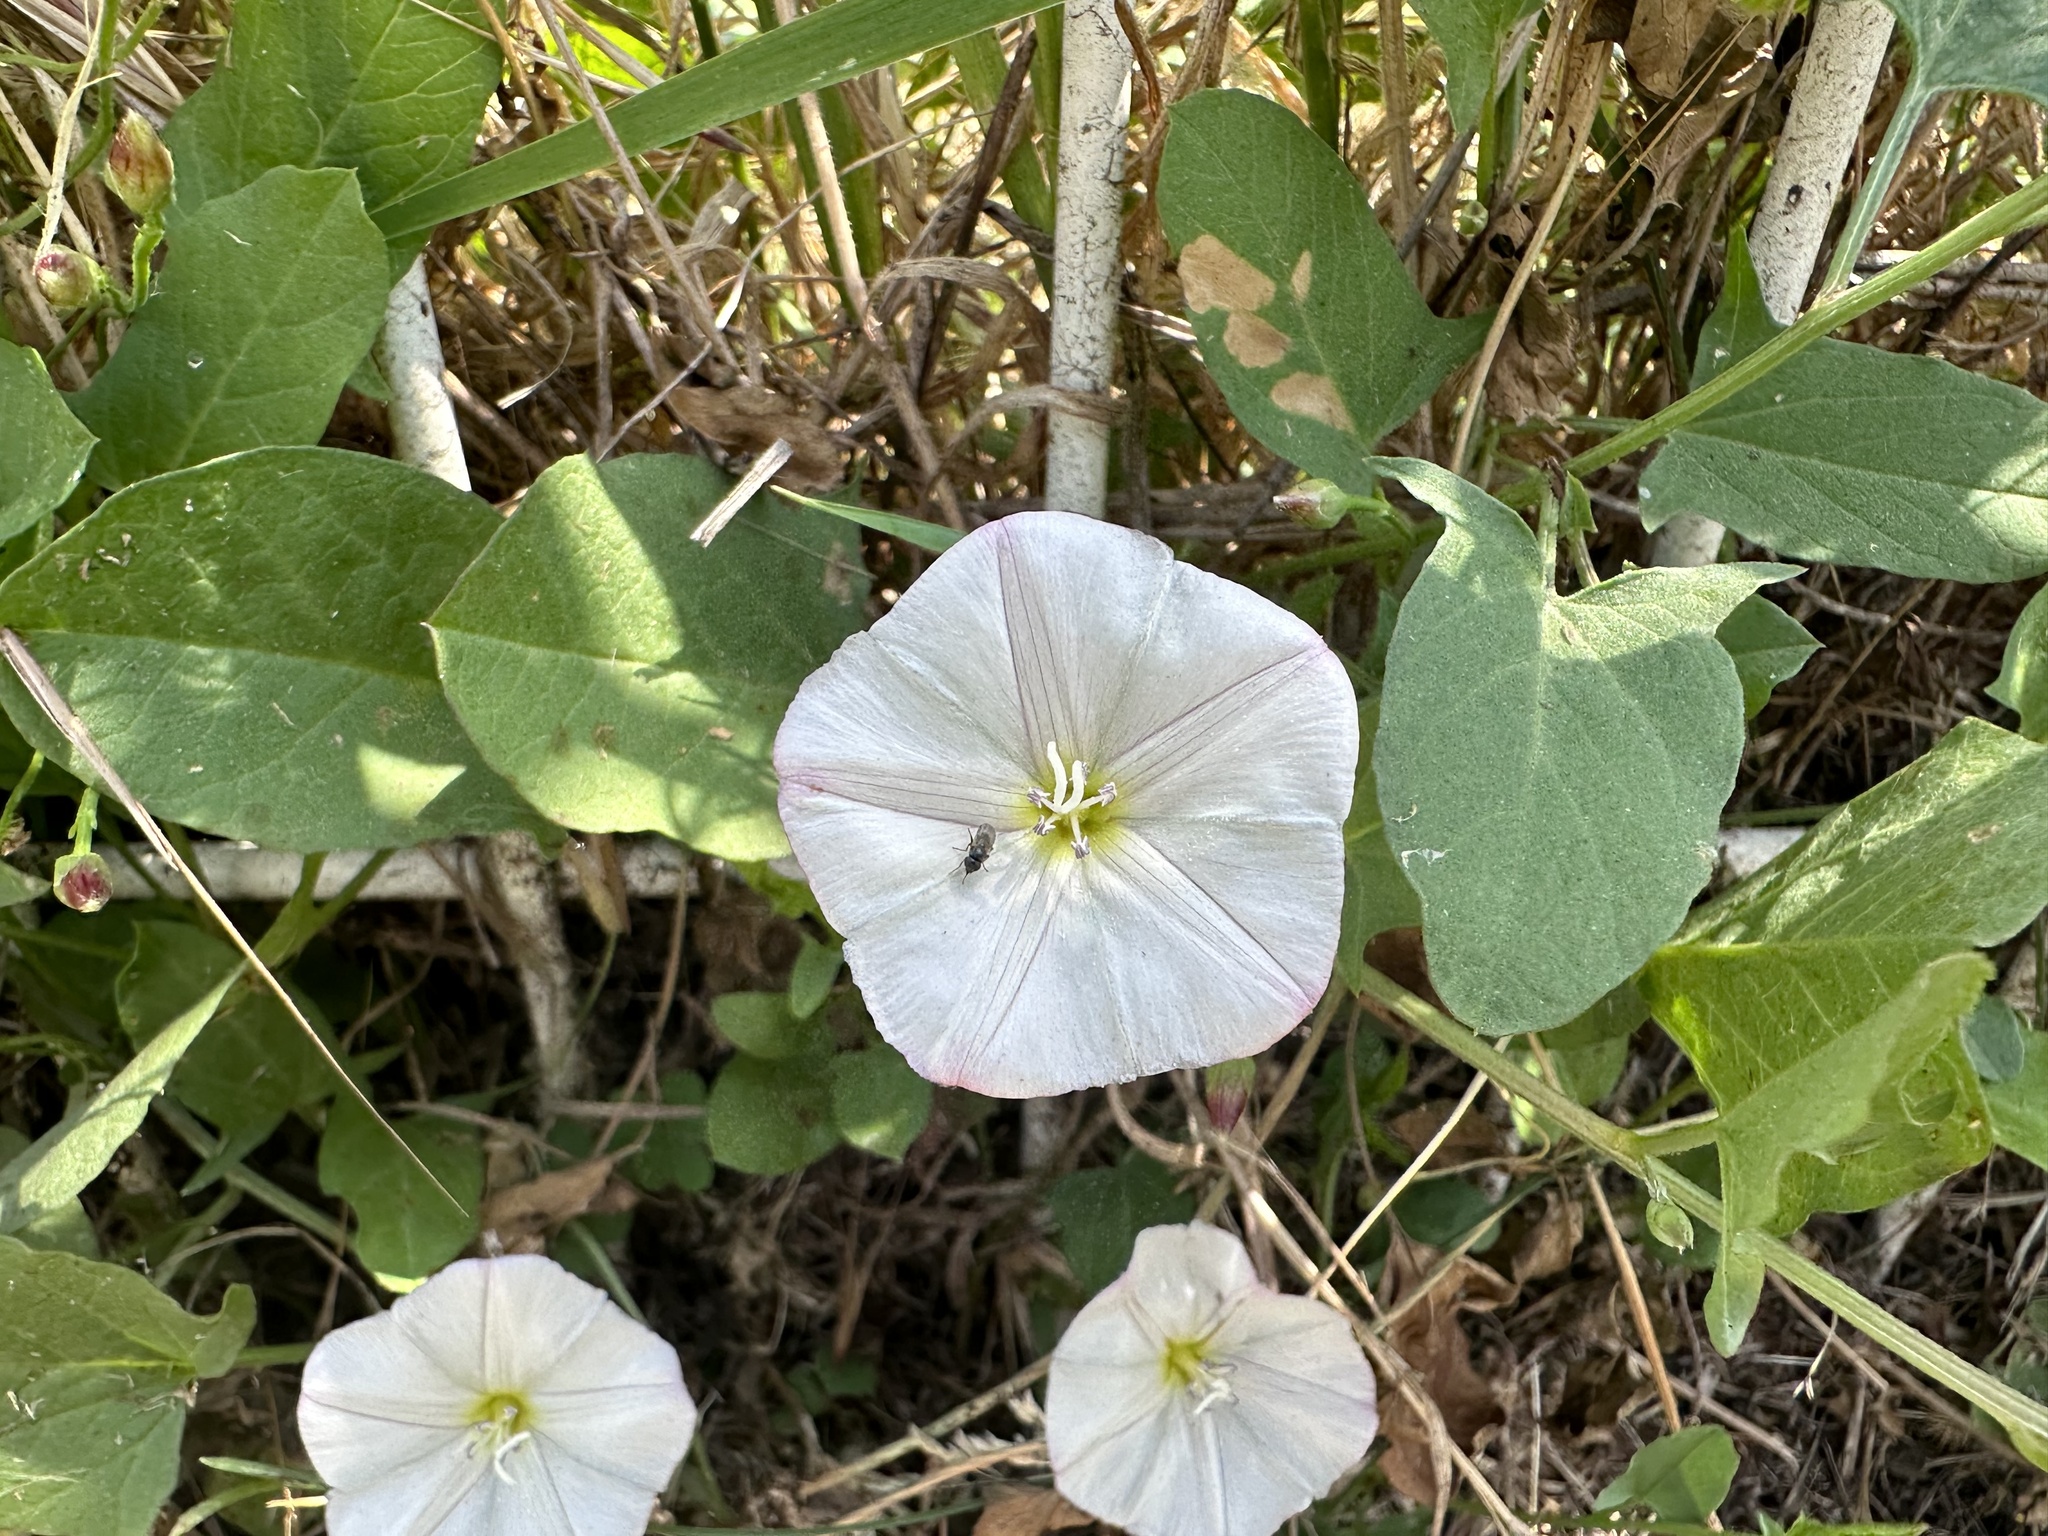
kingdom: Plantae
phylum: Tracheophyta
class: Magnoliopsida
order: Solanales
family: Convolvulaceae
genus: Convolvulus
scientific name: Convolvulus arvensis
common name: Field bindweed
